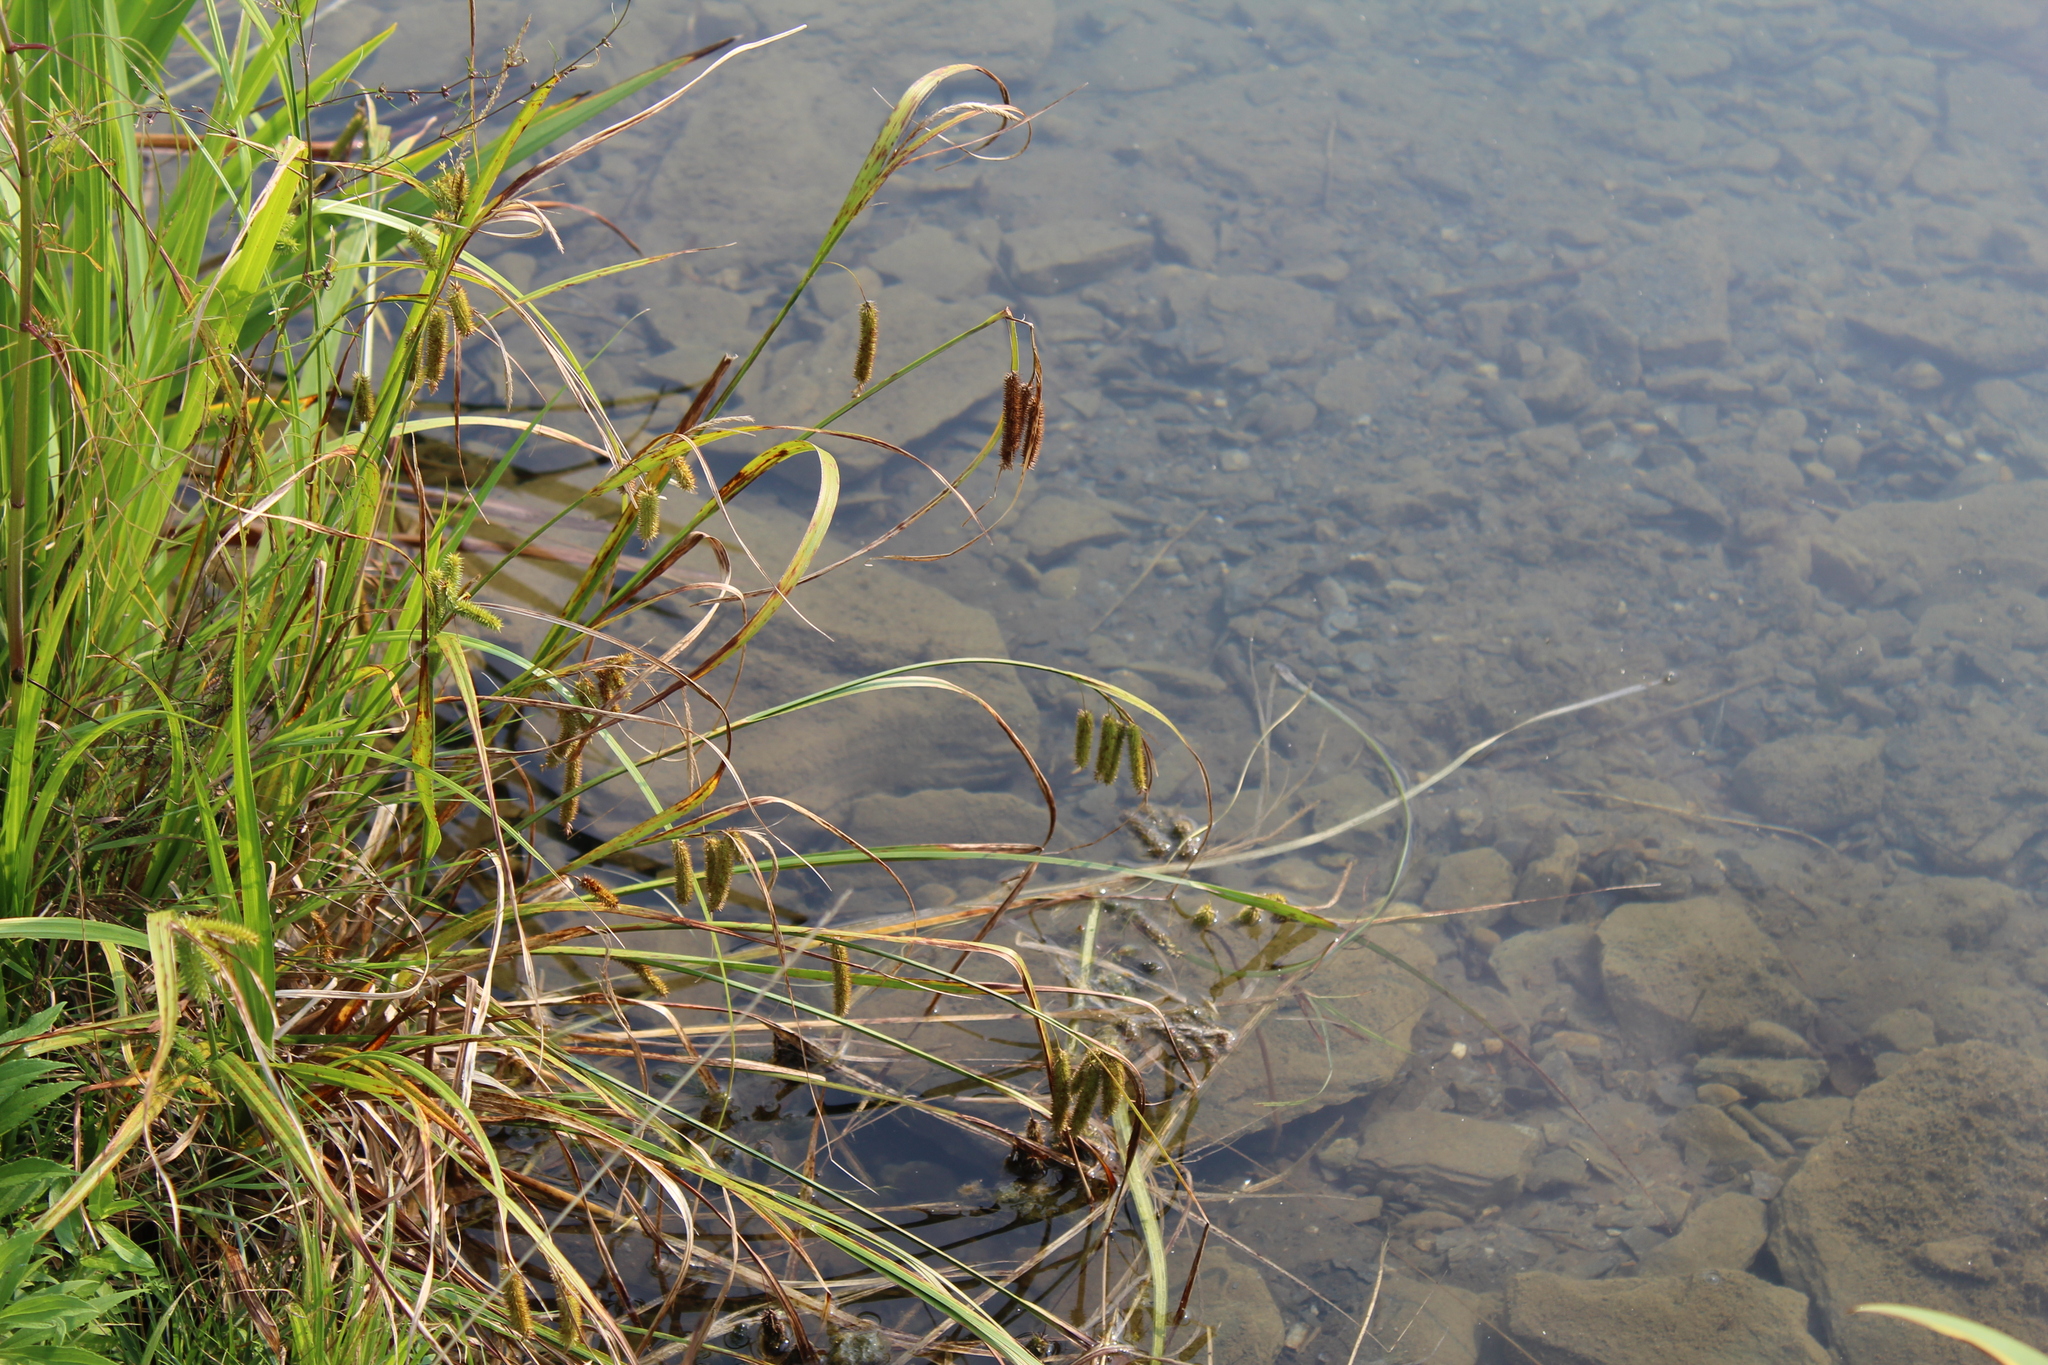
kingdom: Plantae
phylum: Tracheophyta
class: Liliopsida
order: Poales
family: Cyperaceae
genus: Carex
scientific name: Carex pseudocyperus
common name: Cyperus sedge
